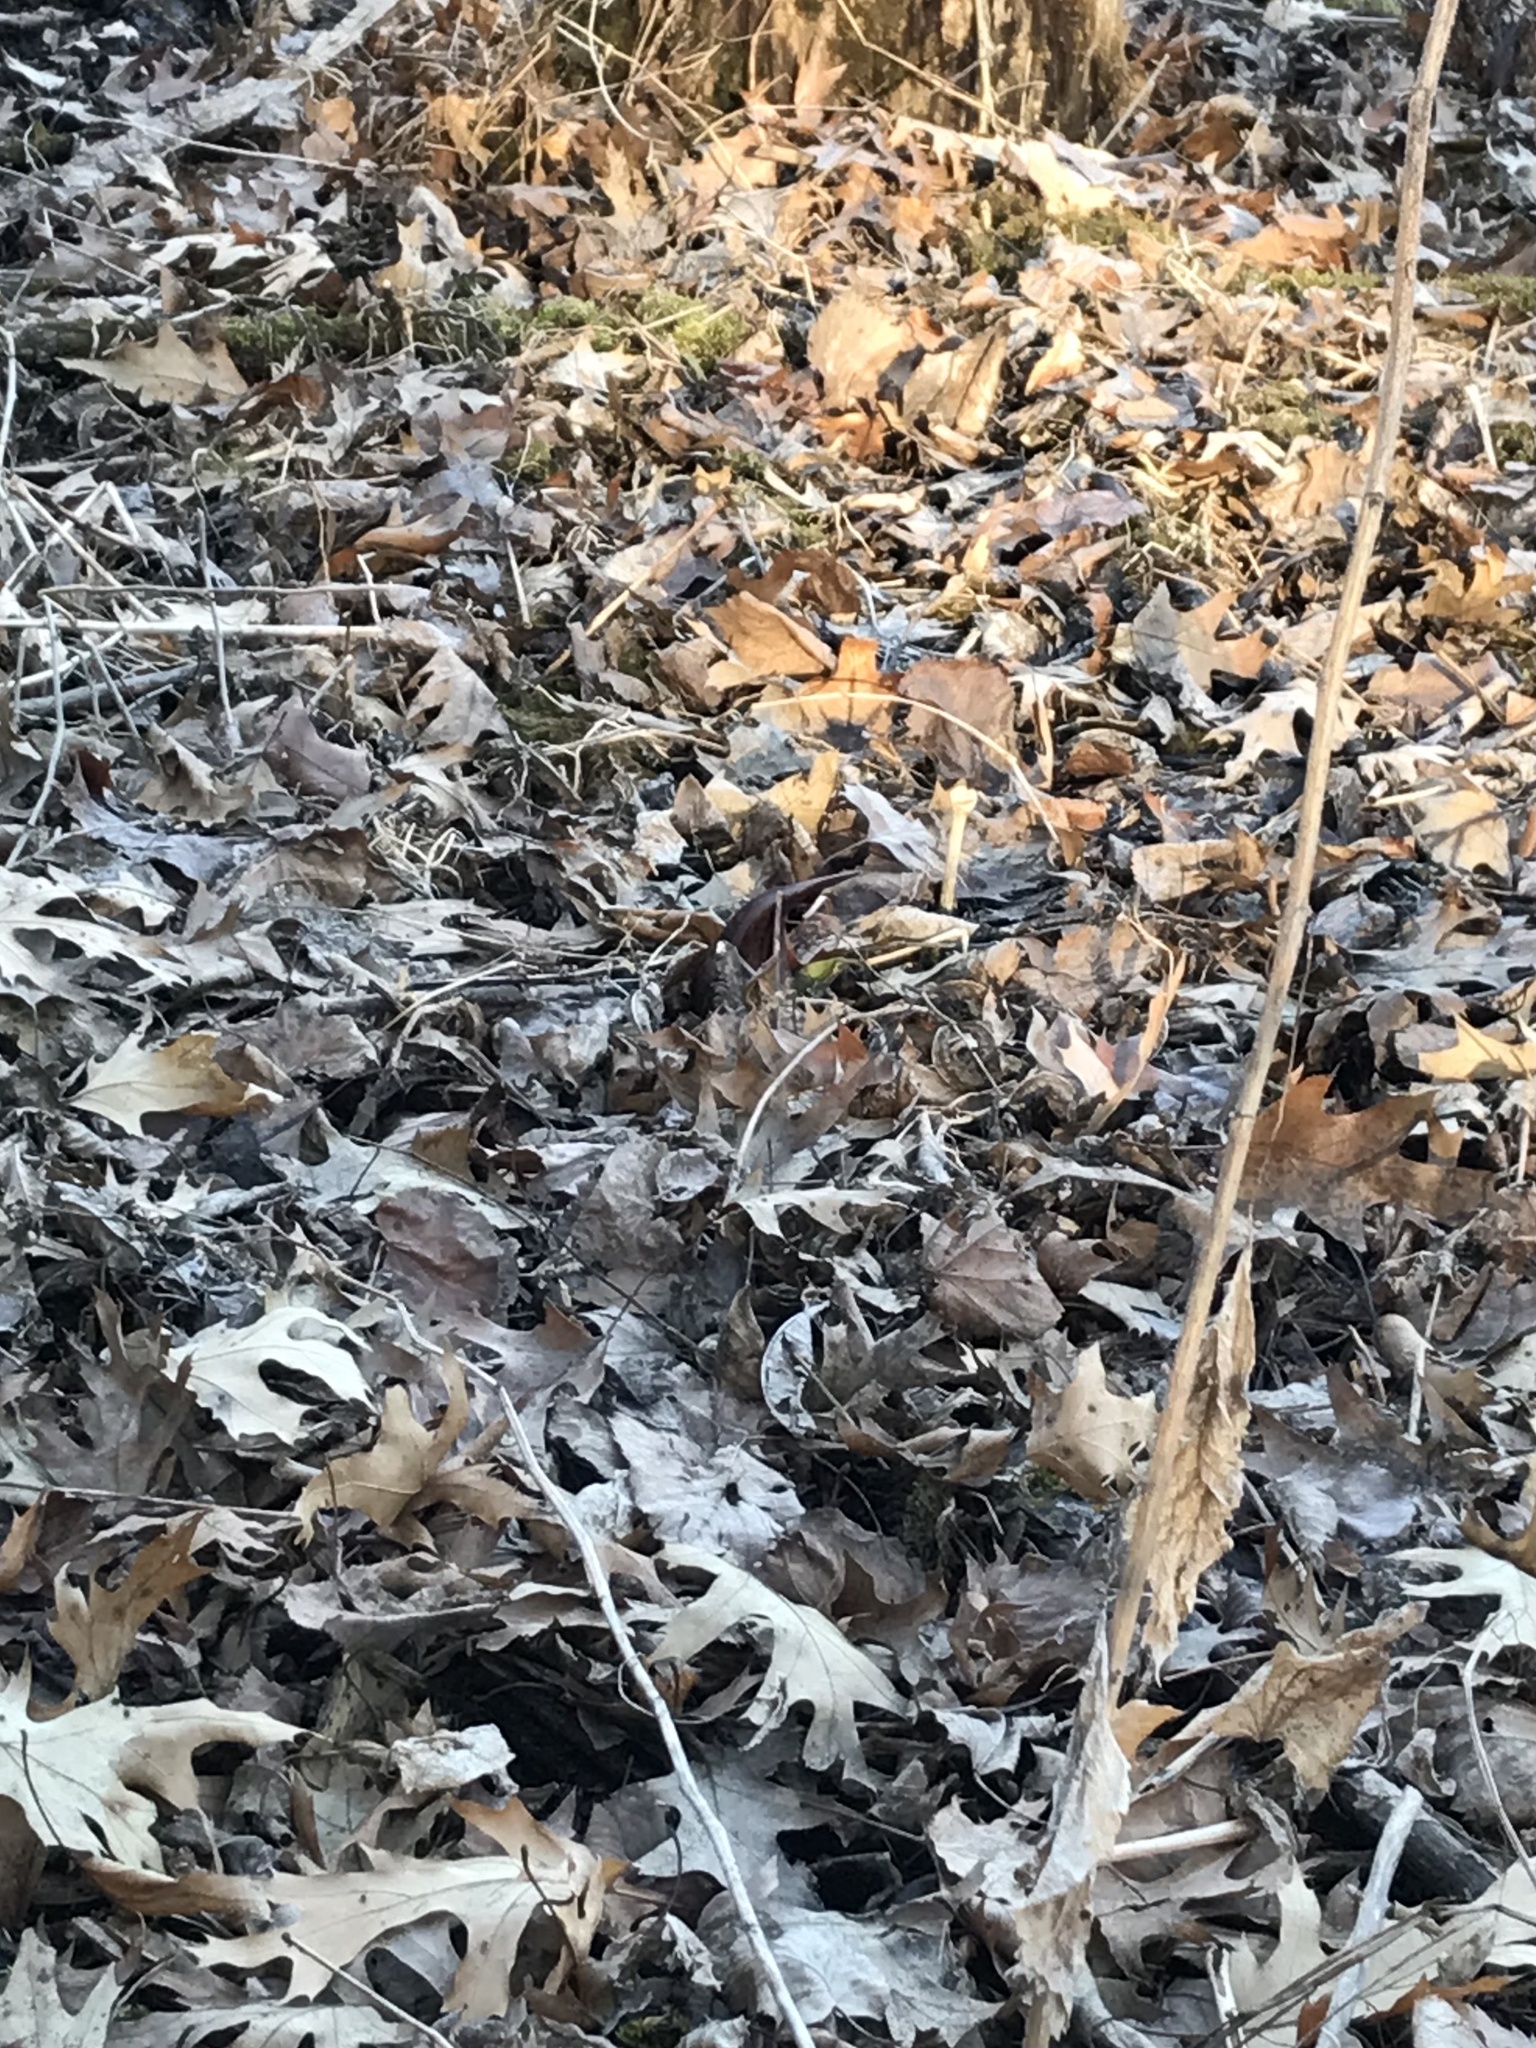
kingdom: Plantae
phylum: Tracheophyta
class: Liliopsida
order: Alismatales
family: Araceae
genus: Symplocarpus
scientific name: Symplocarpus foetidus
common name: Eastern skunk cabbage
